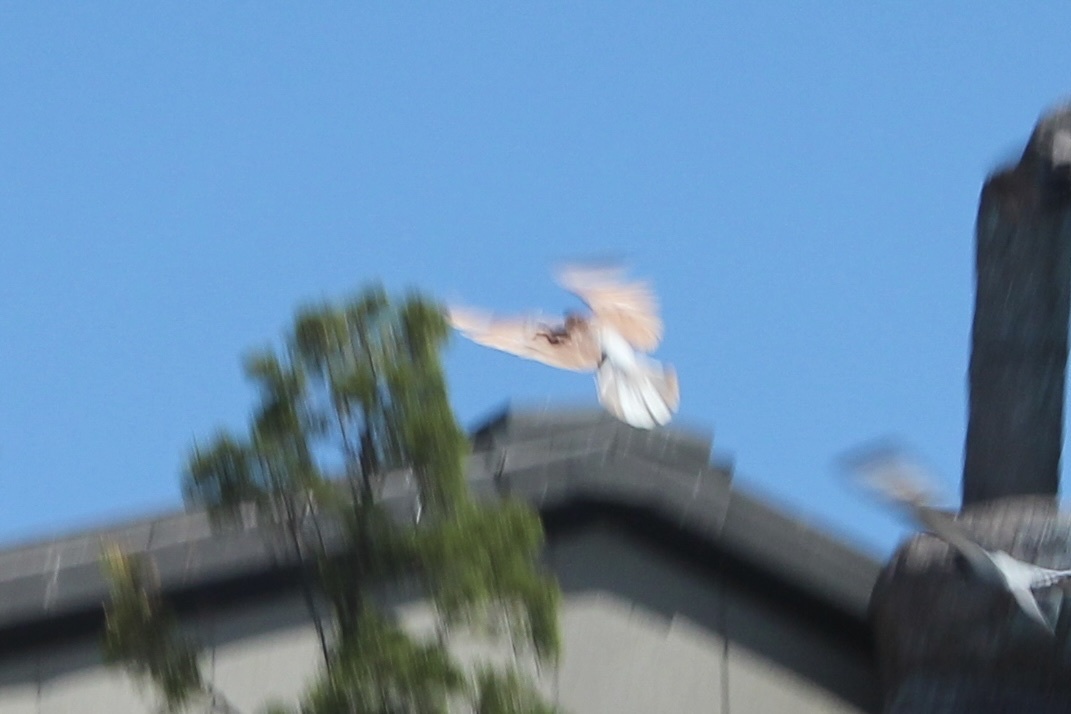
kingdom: Animalia
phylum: Chordata
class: Aves
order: Columbiformes
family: Columbidae
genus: Columba
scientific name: Columba livia
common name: Rock pigeon
